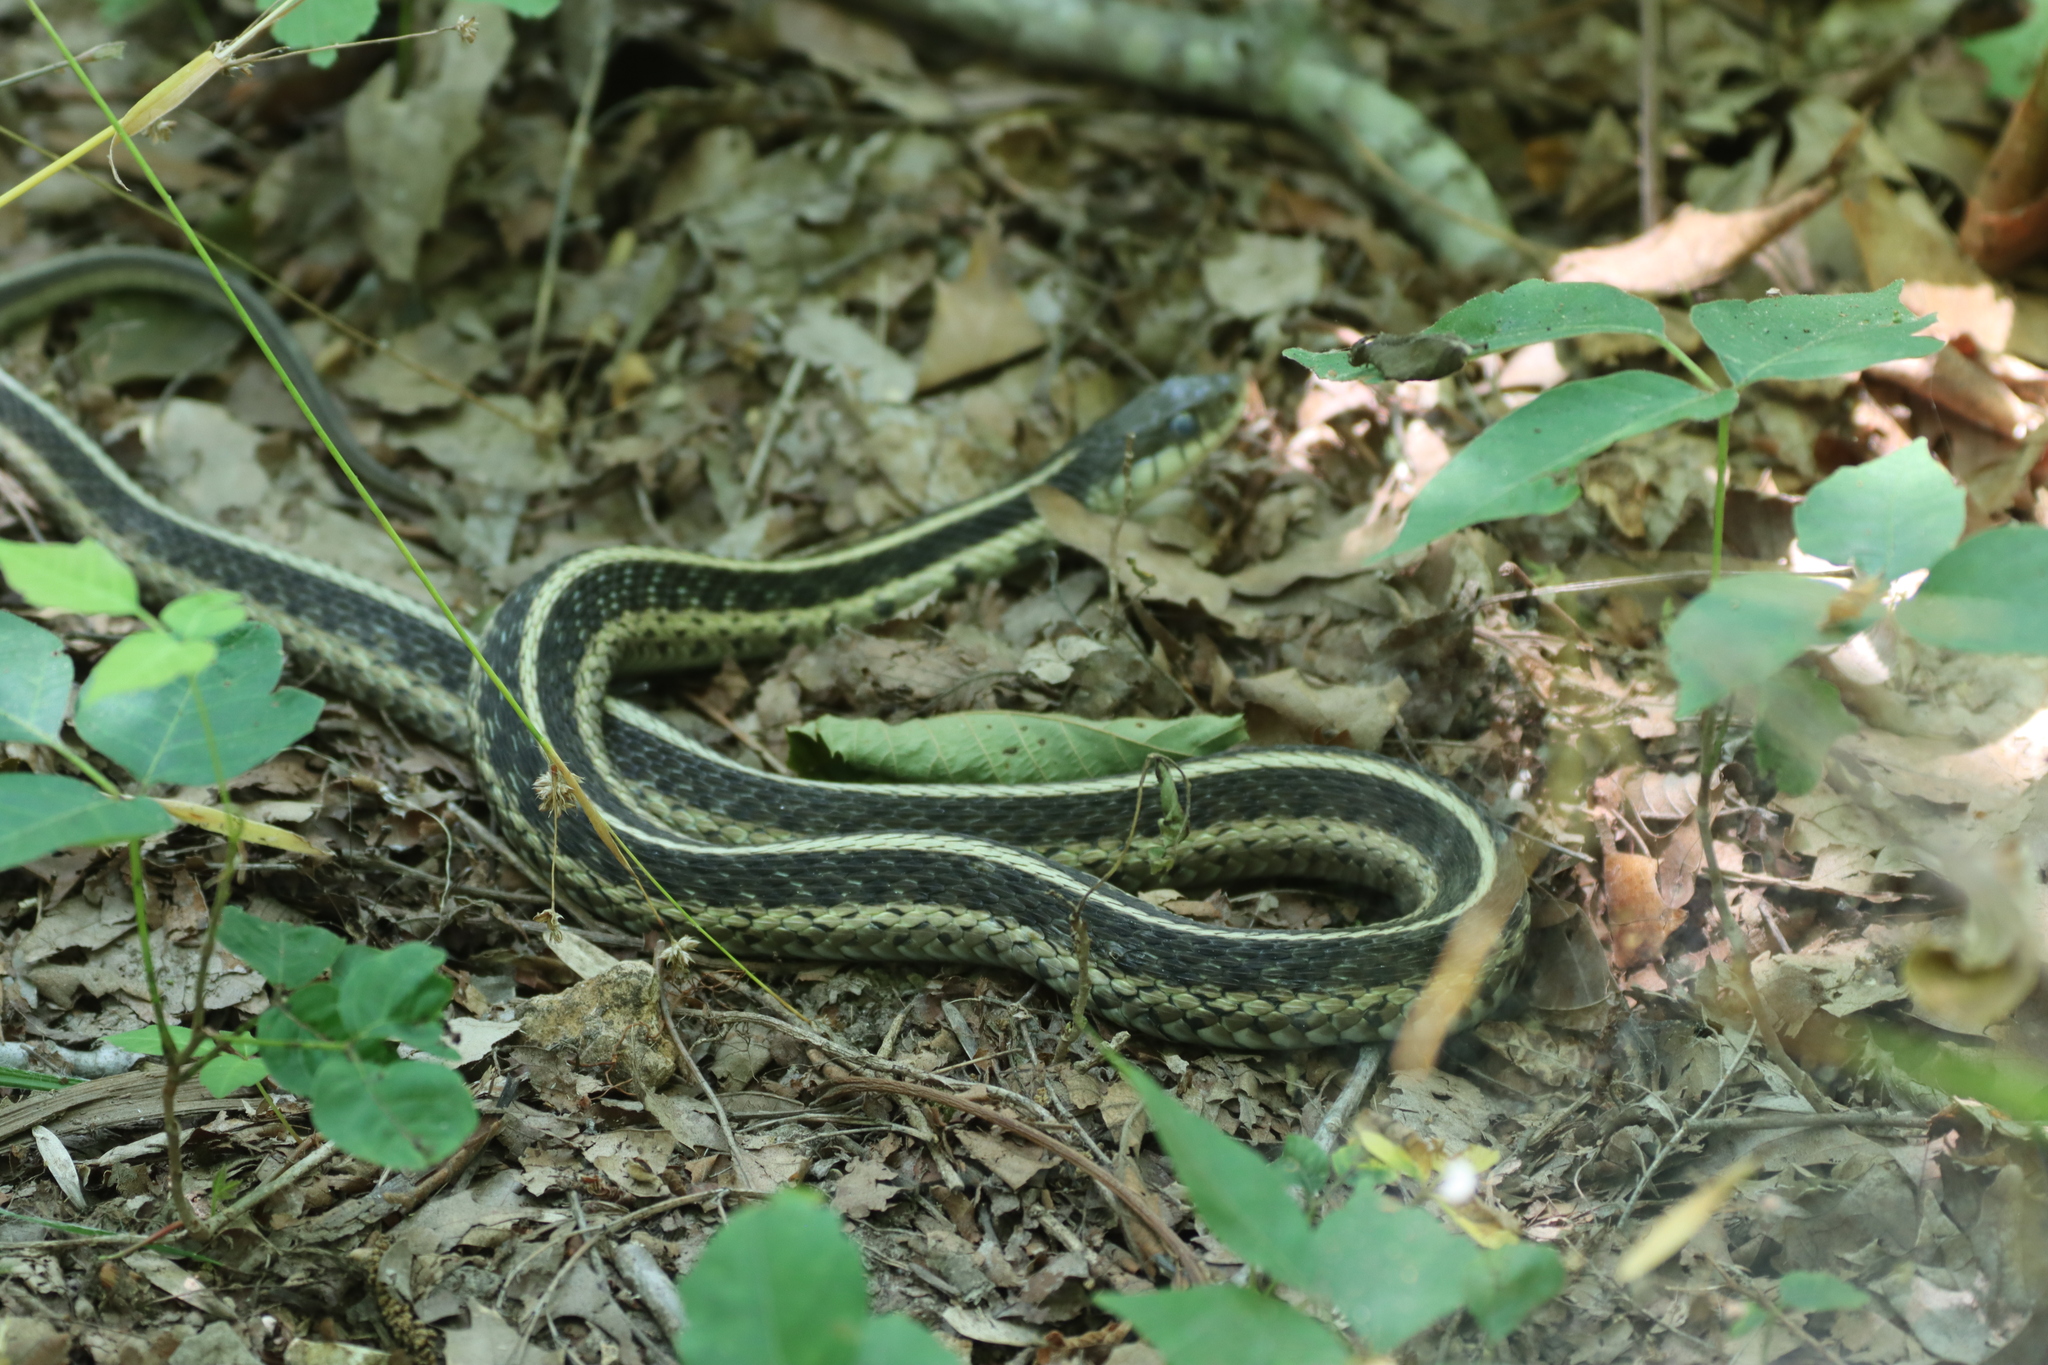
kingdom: Animalia
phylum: Chordata
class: Squamata
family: Colubridae
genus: Thamnophis
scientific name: Thamnophis sirtalis
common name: Common garter snake
